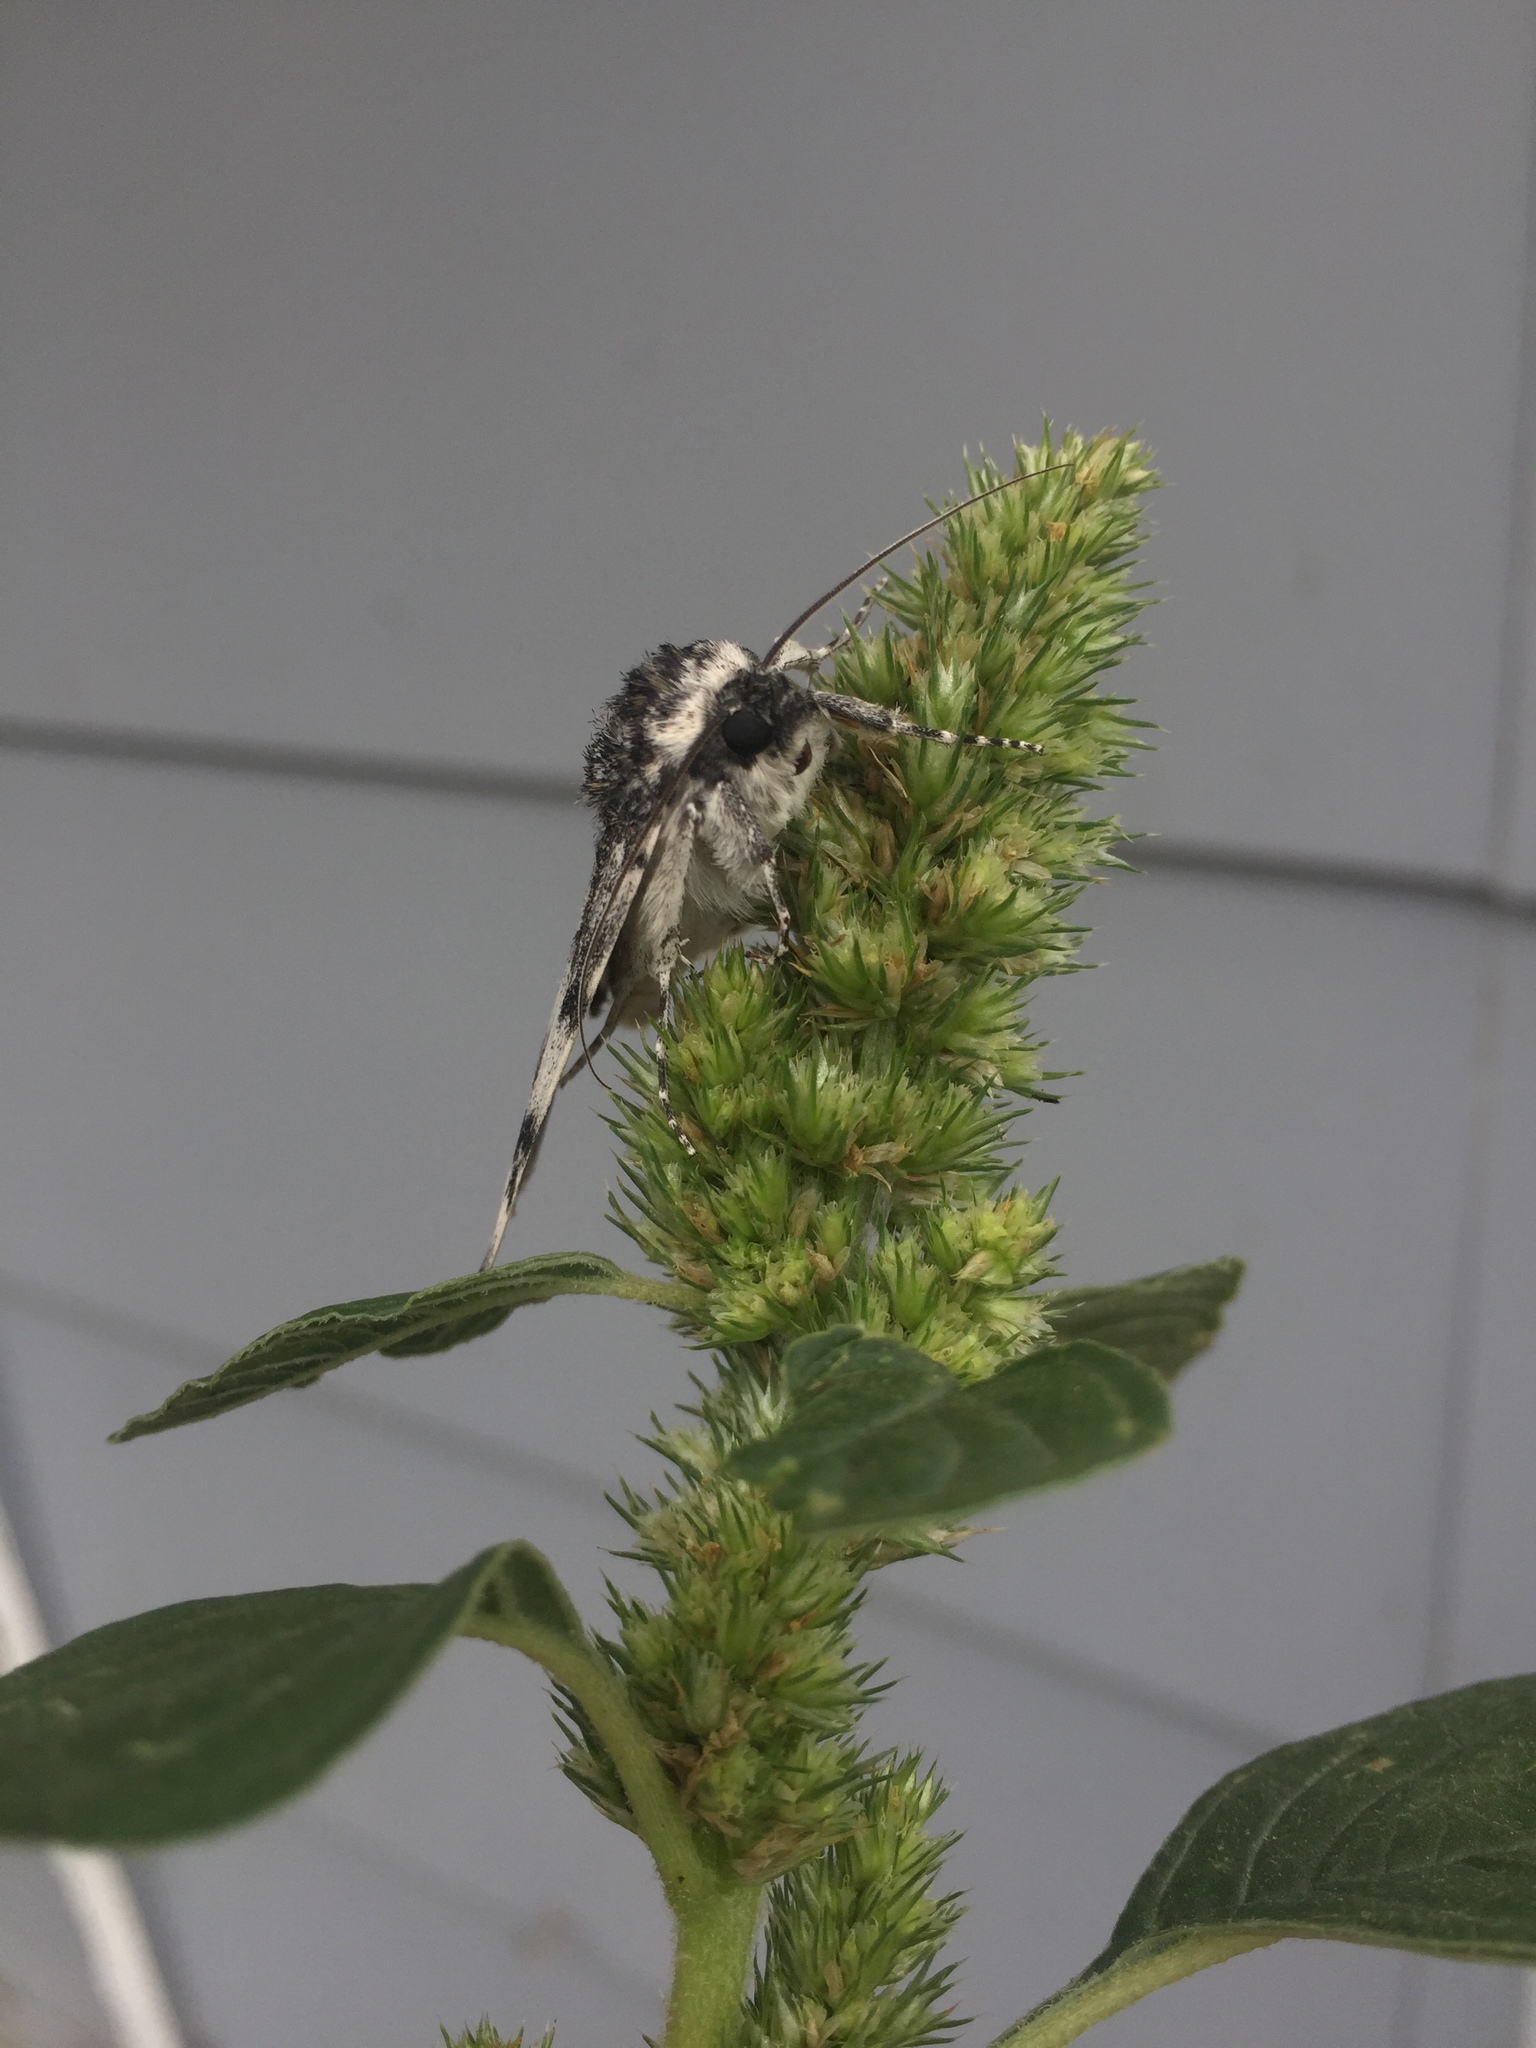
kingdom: Animalia
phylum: Arthropoda
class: Insecta
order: Lepidoptera
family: Erebidae
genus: Catocala
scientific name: Catocala relicta
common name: White underwing
